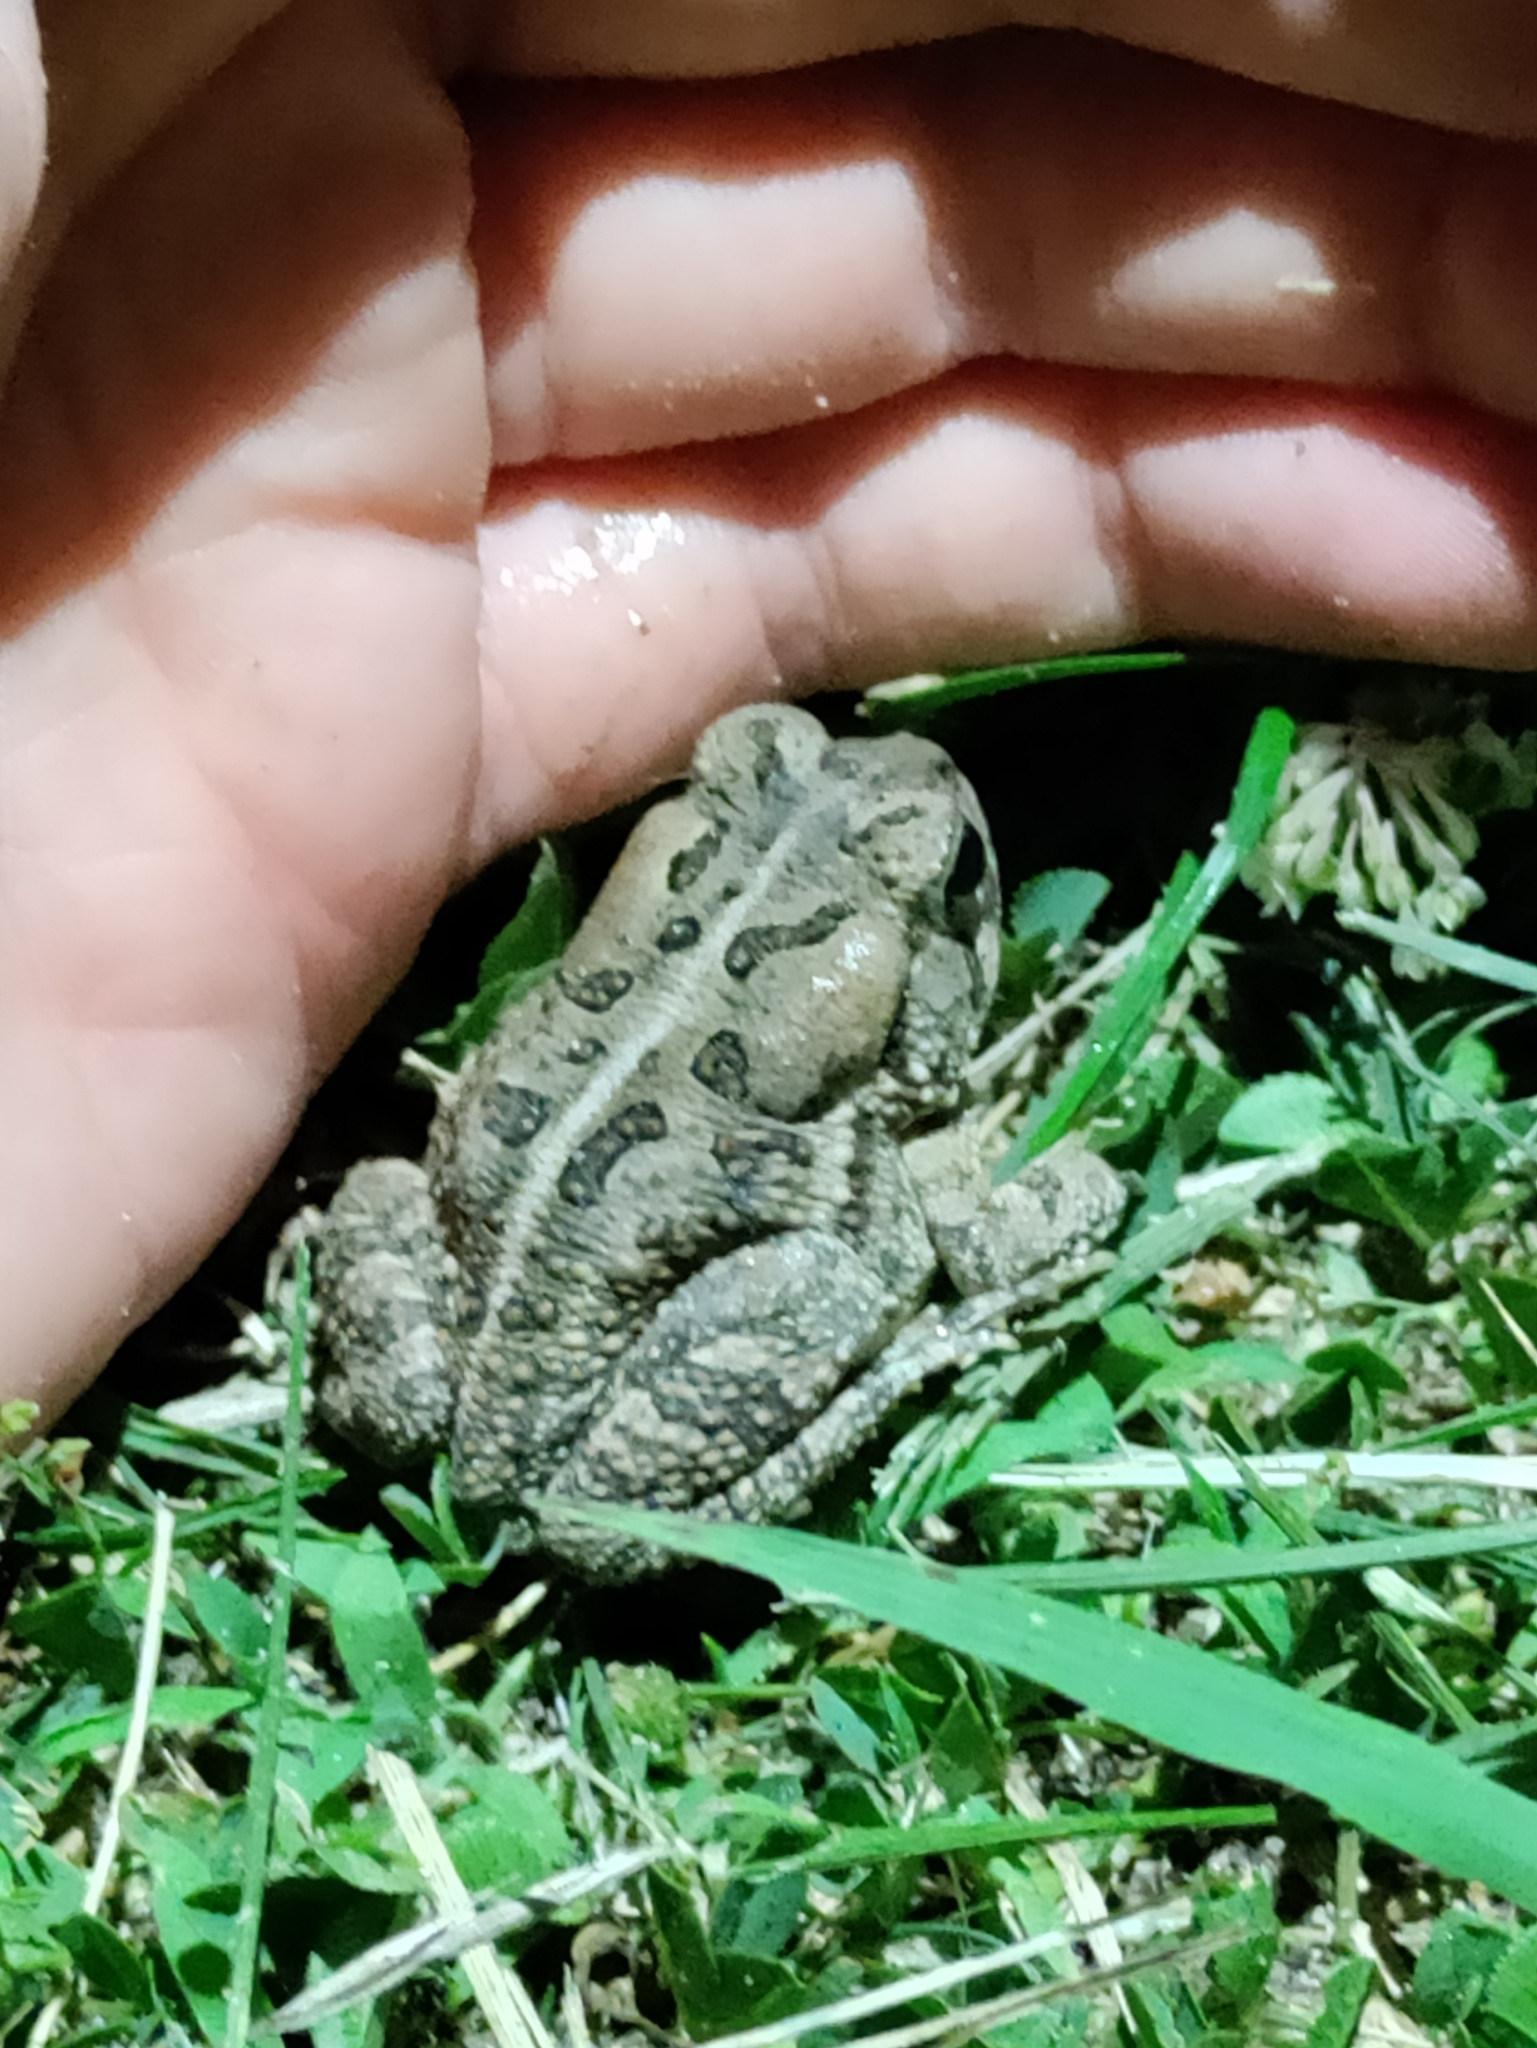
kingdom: Animalia
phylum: Chordata
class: Amphibia
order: Anura
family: Bufonidae
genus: Anaxyrus
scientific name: Anaxyrus fowleri
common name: Fowler's toad
